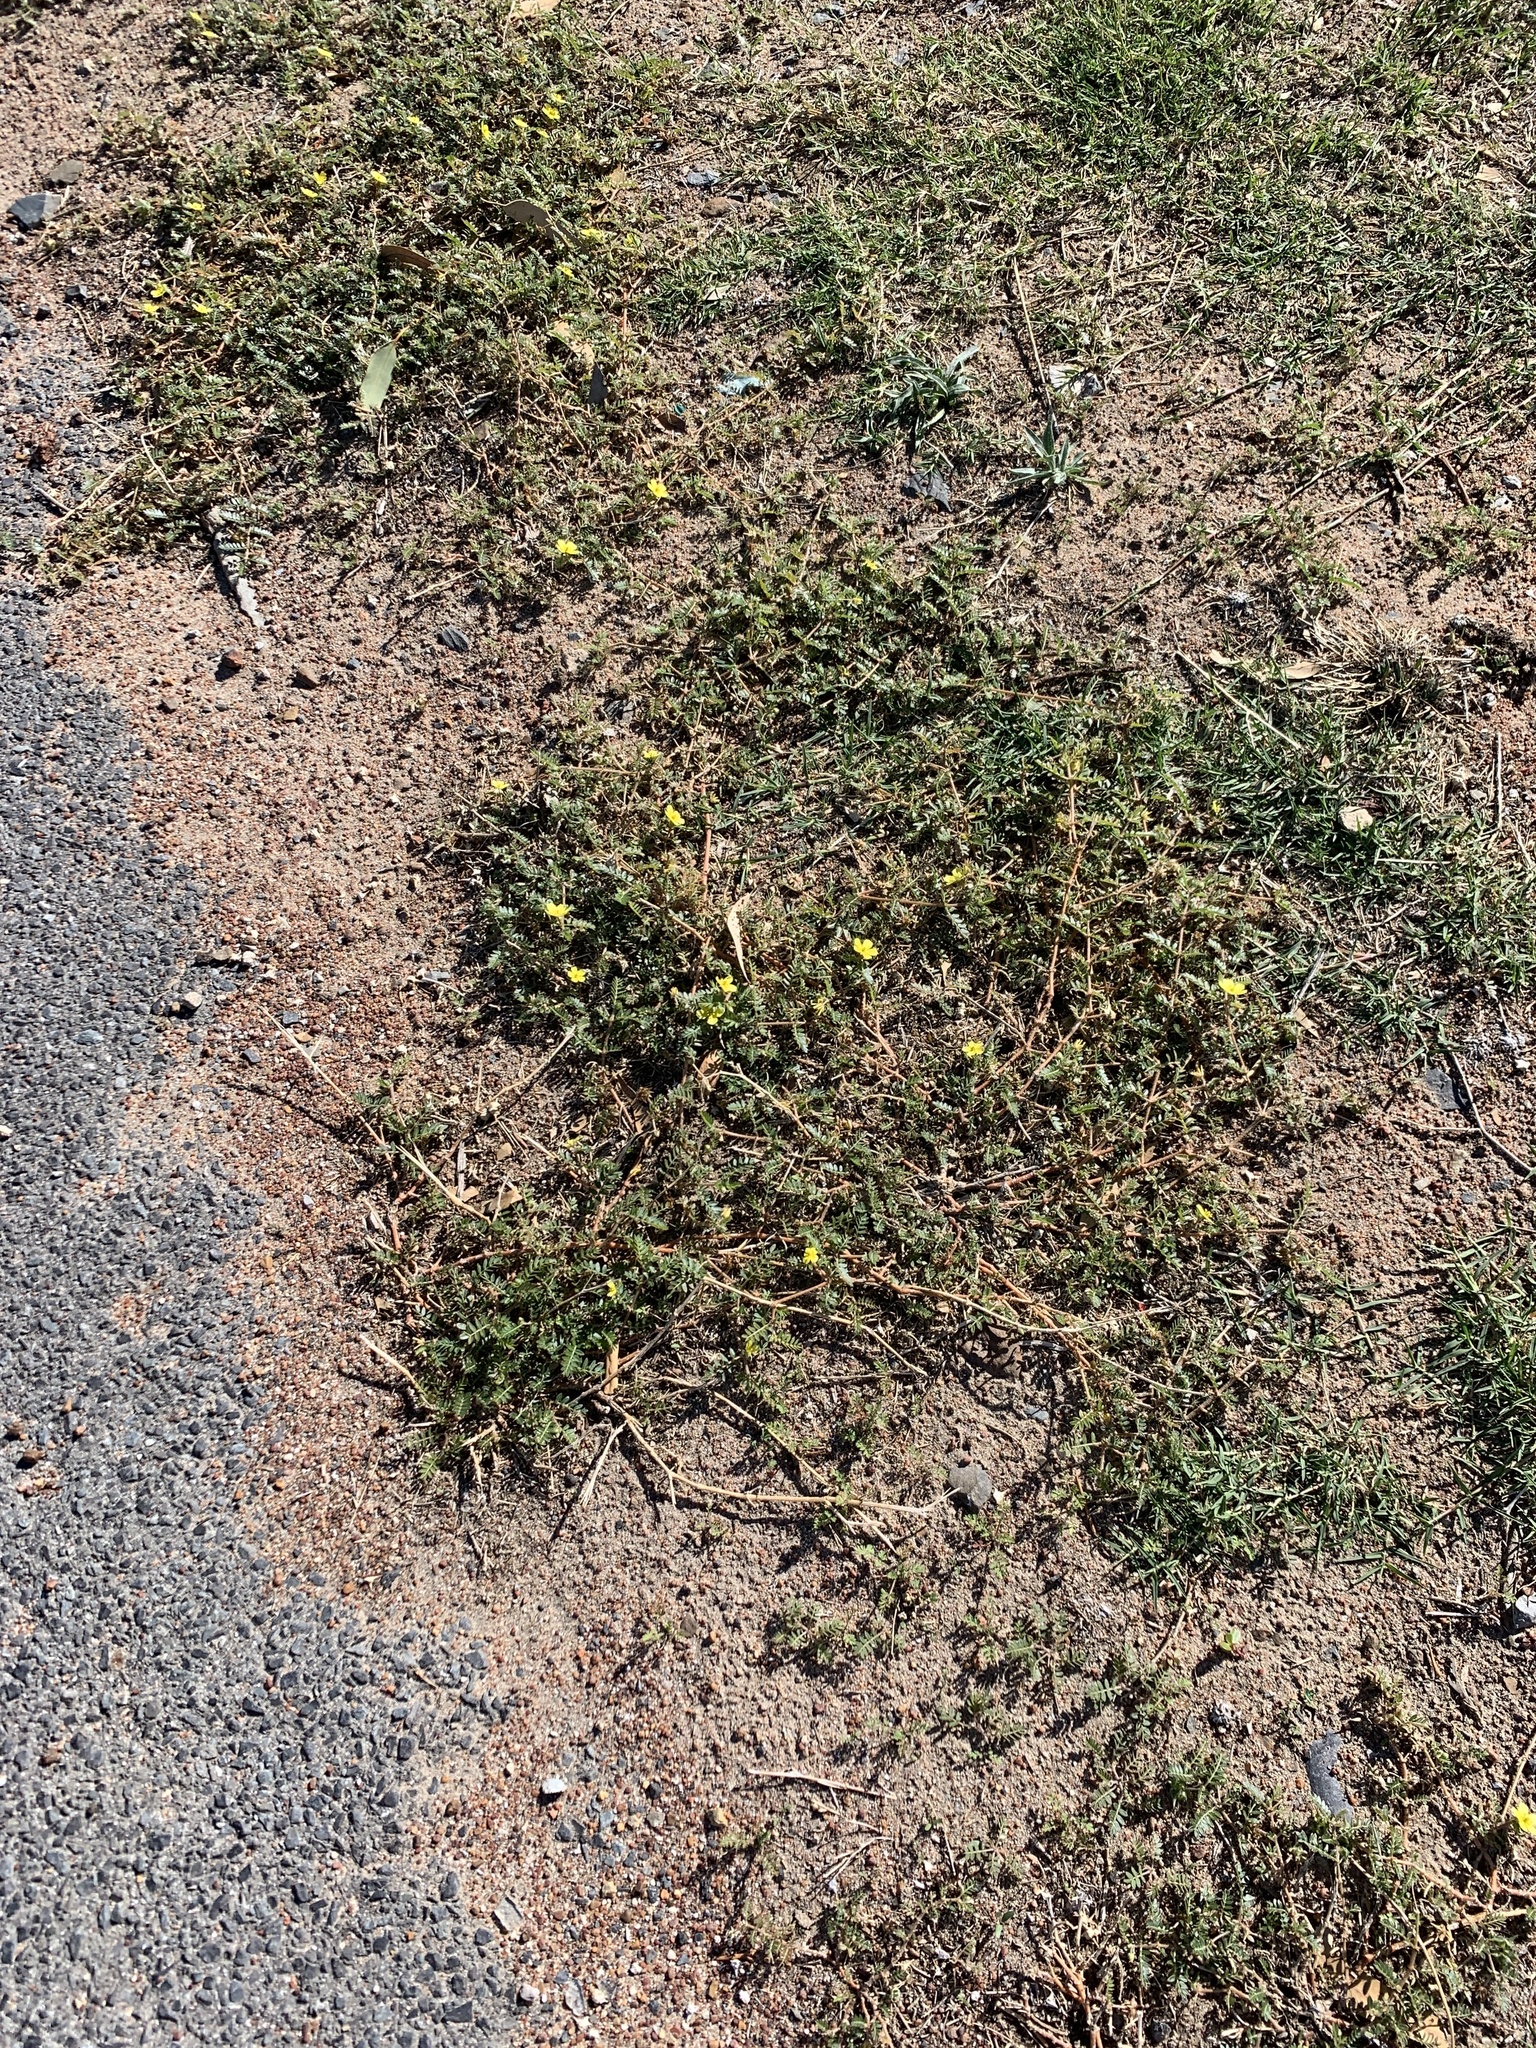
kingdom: Plantae
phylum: Tracheophyta
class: Magnoliopsida
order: Zygophyllales
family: Zygophyllaceae
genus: Tribulus
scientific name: Tribulus terrestris
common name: Puncturevine
